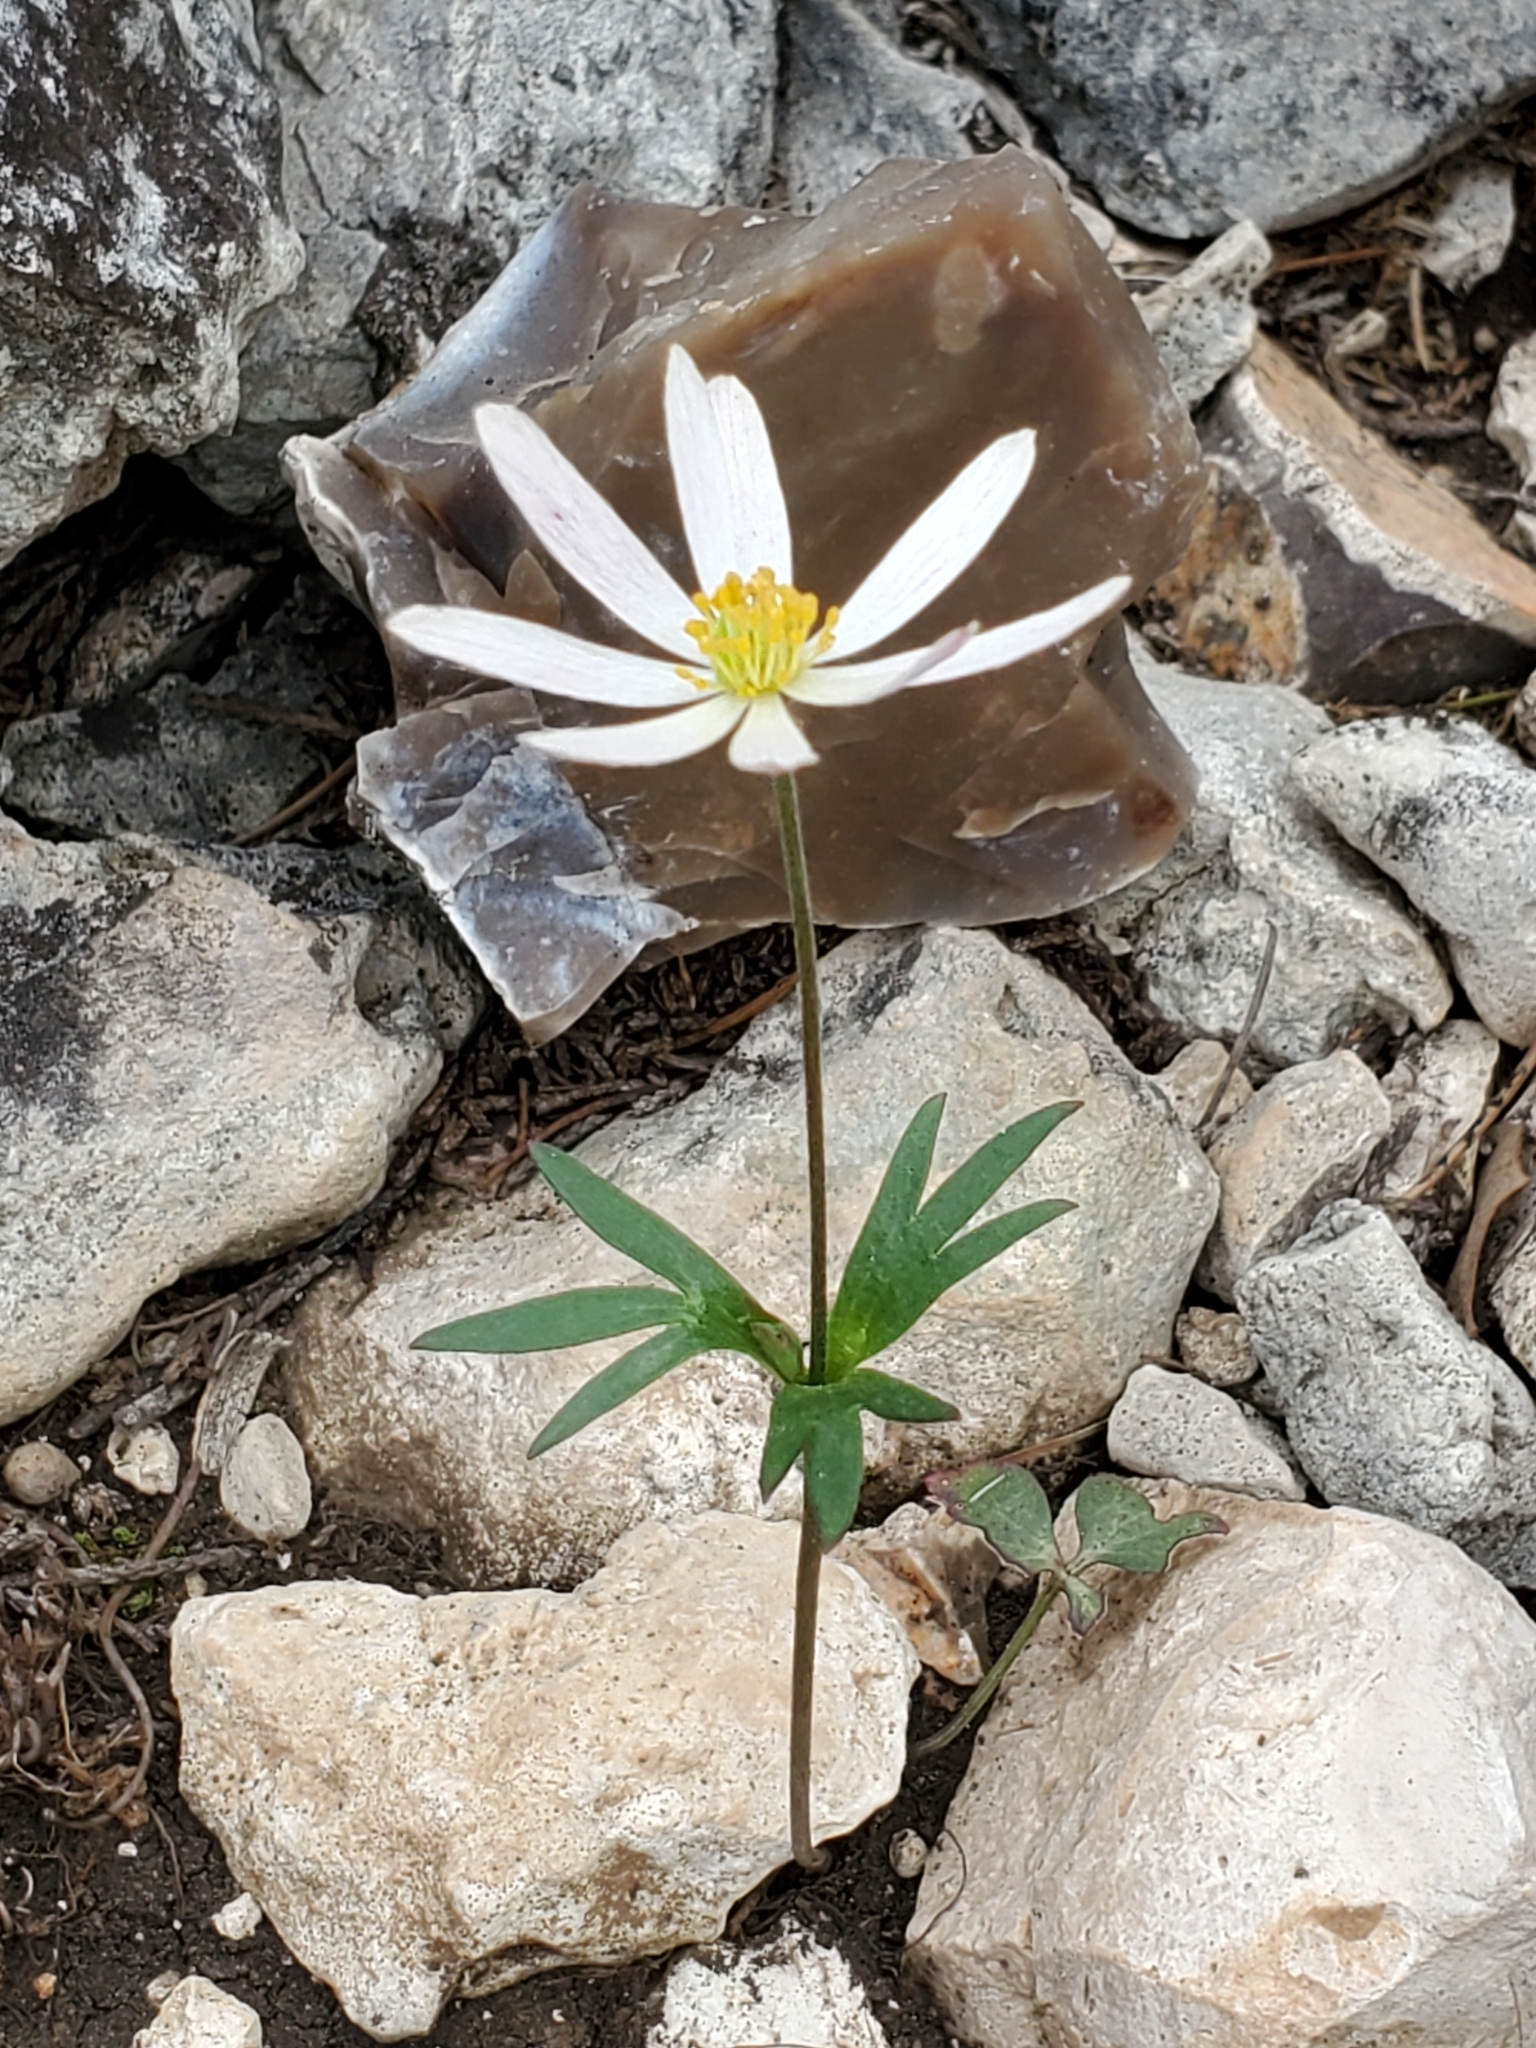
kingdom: Plantae
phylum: Tracheophyta
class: Magnoliopsida
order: Ranunculales
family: Ranunculaceae
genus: Anemone
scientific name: Anemone edwardsiana
